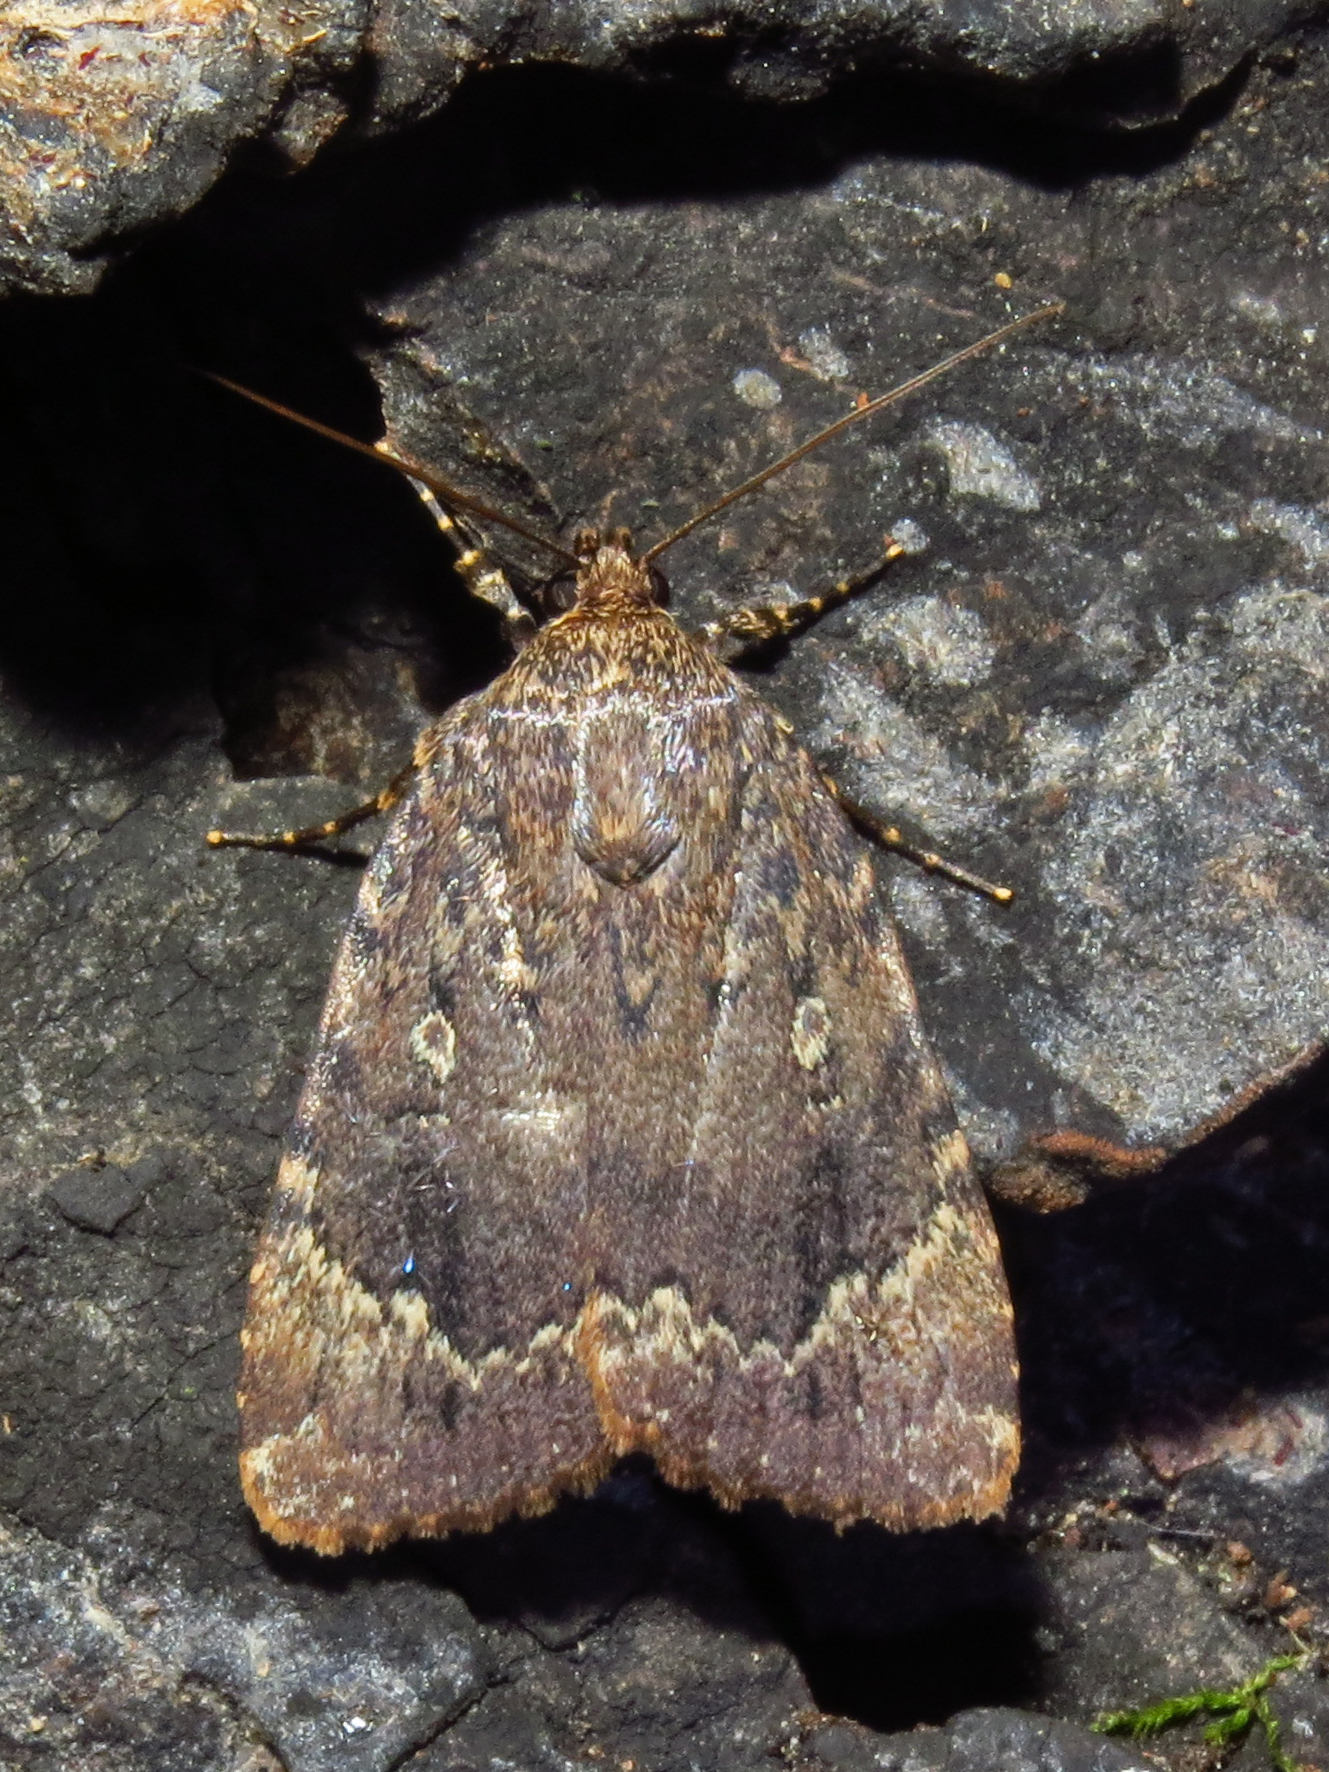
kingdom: Animalia
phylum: Arthropoda
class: Insecta
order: Lepidoptera
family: Noctuidae
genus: Amphipyra
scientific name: Amphipyra pyramidoides
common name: American copper underwing
